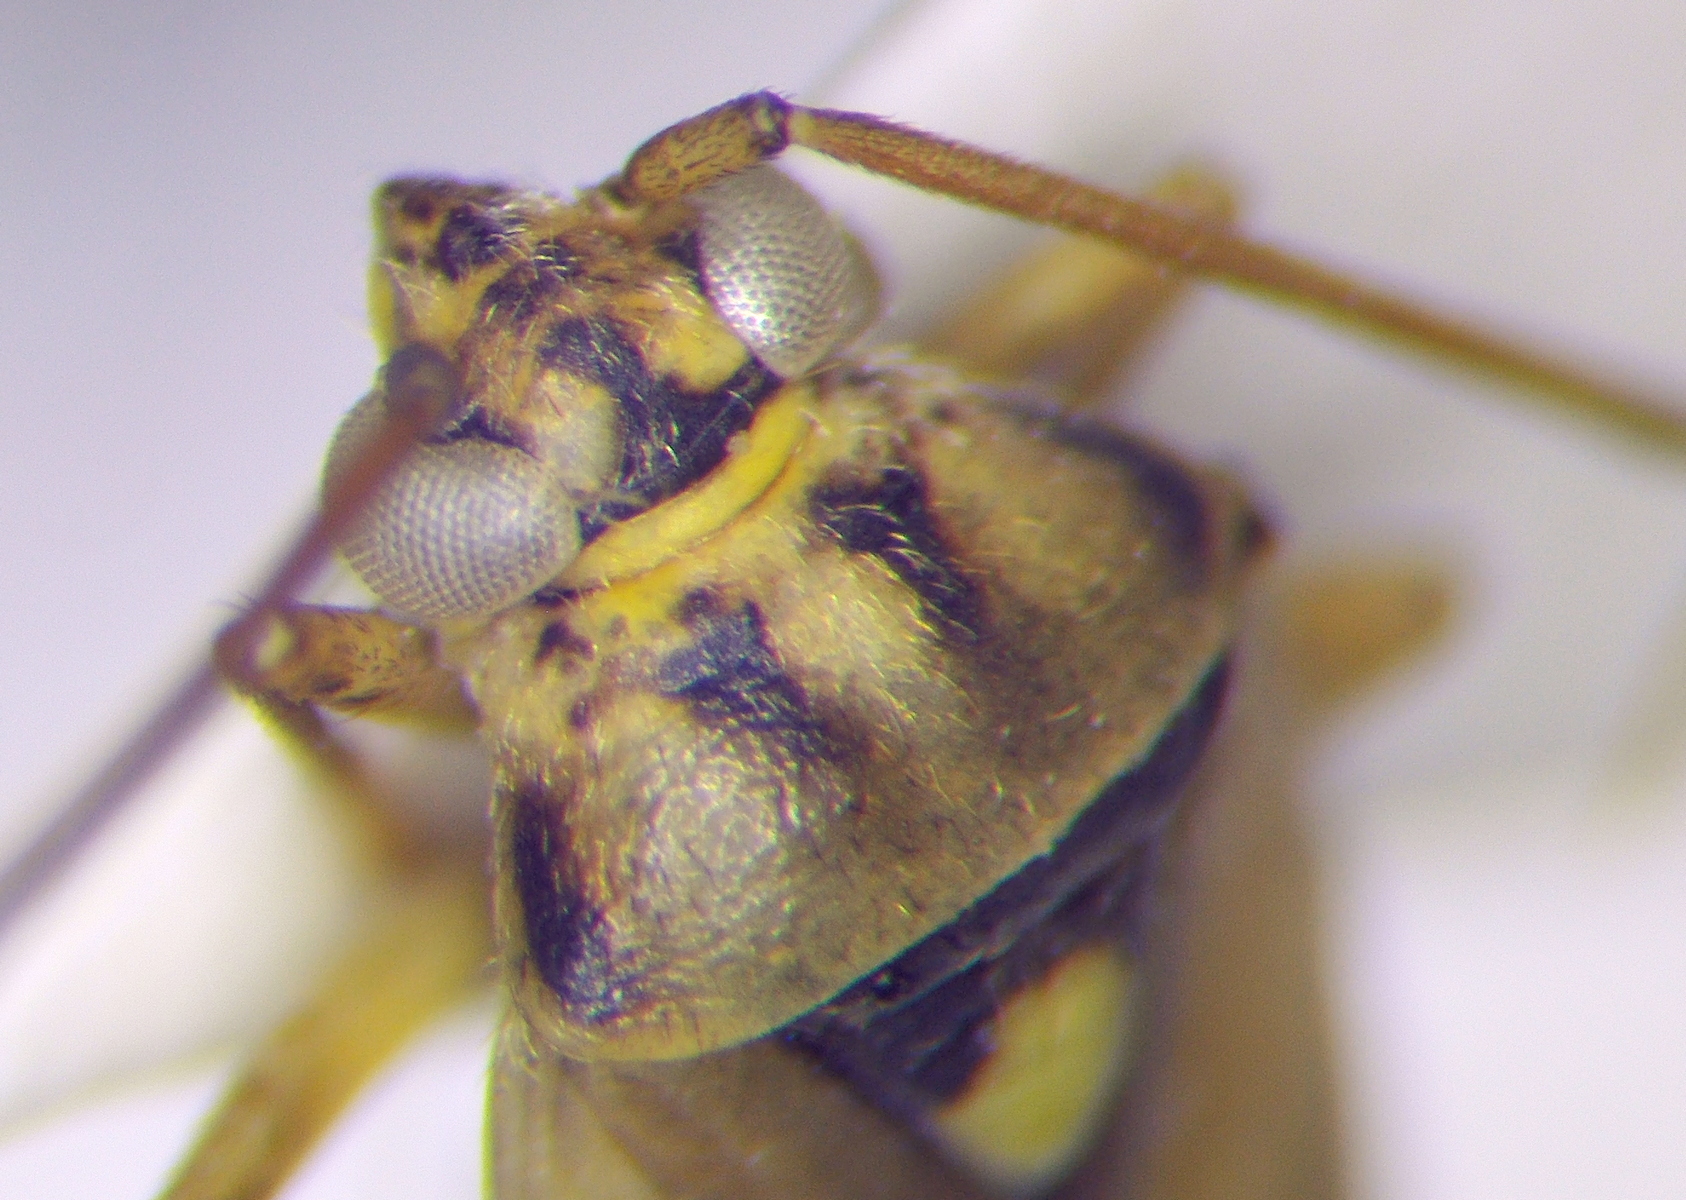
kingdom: Animalia
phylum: Arthropoda
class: Insecta
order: Hemiptera
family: Miridae
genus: Polymerus
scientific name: Polymerus vulneratus
